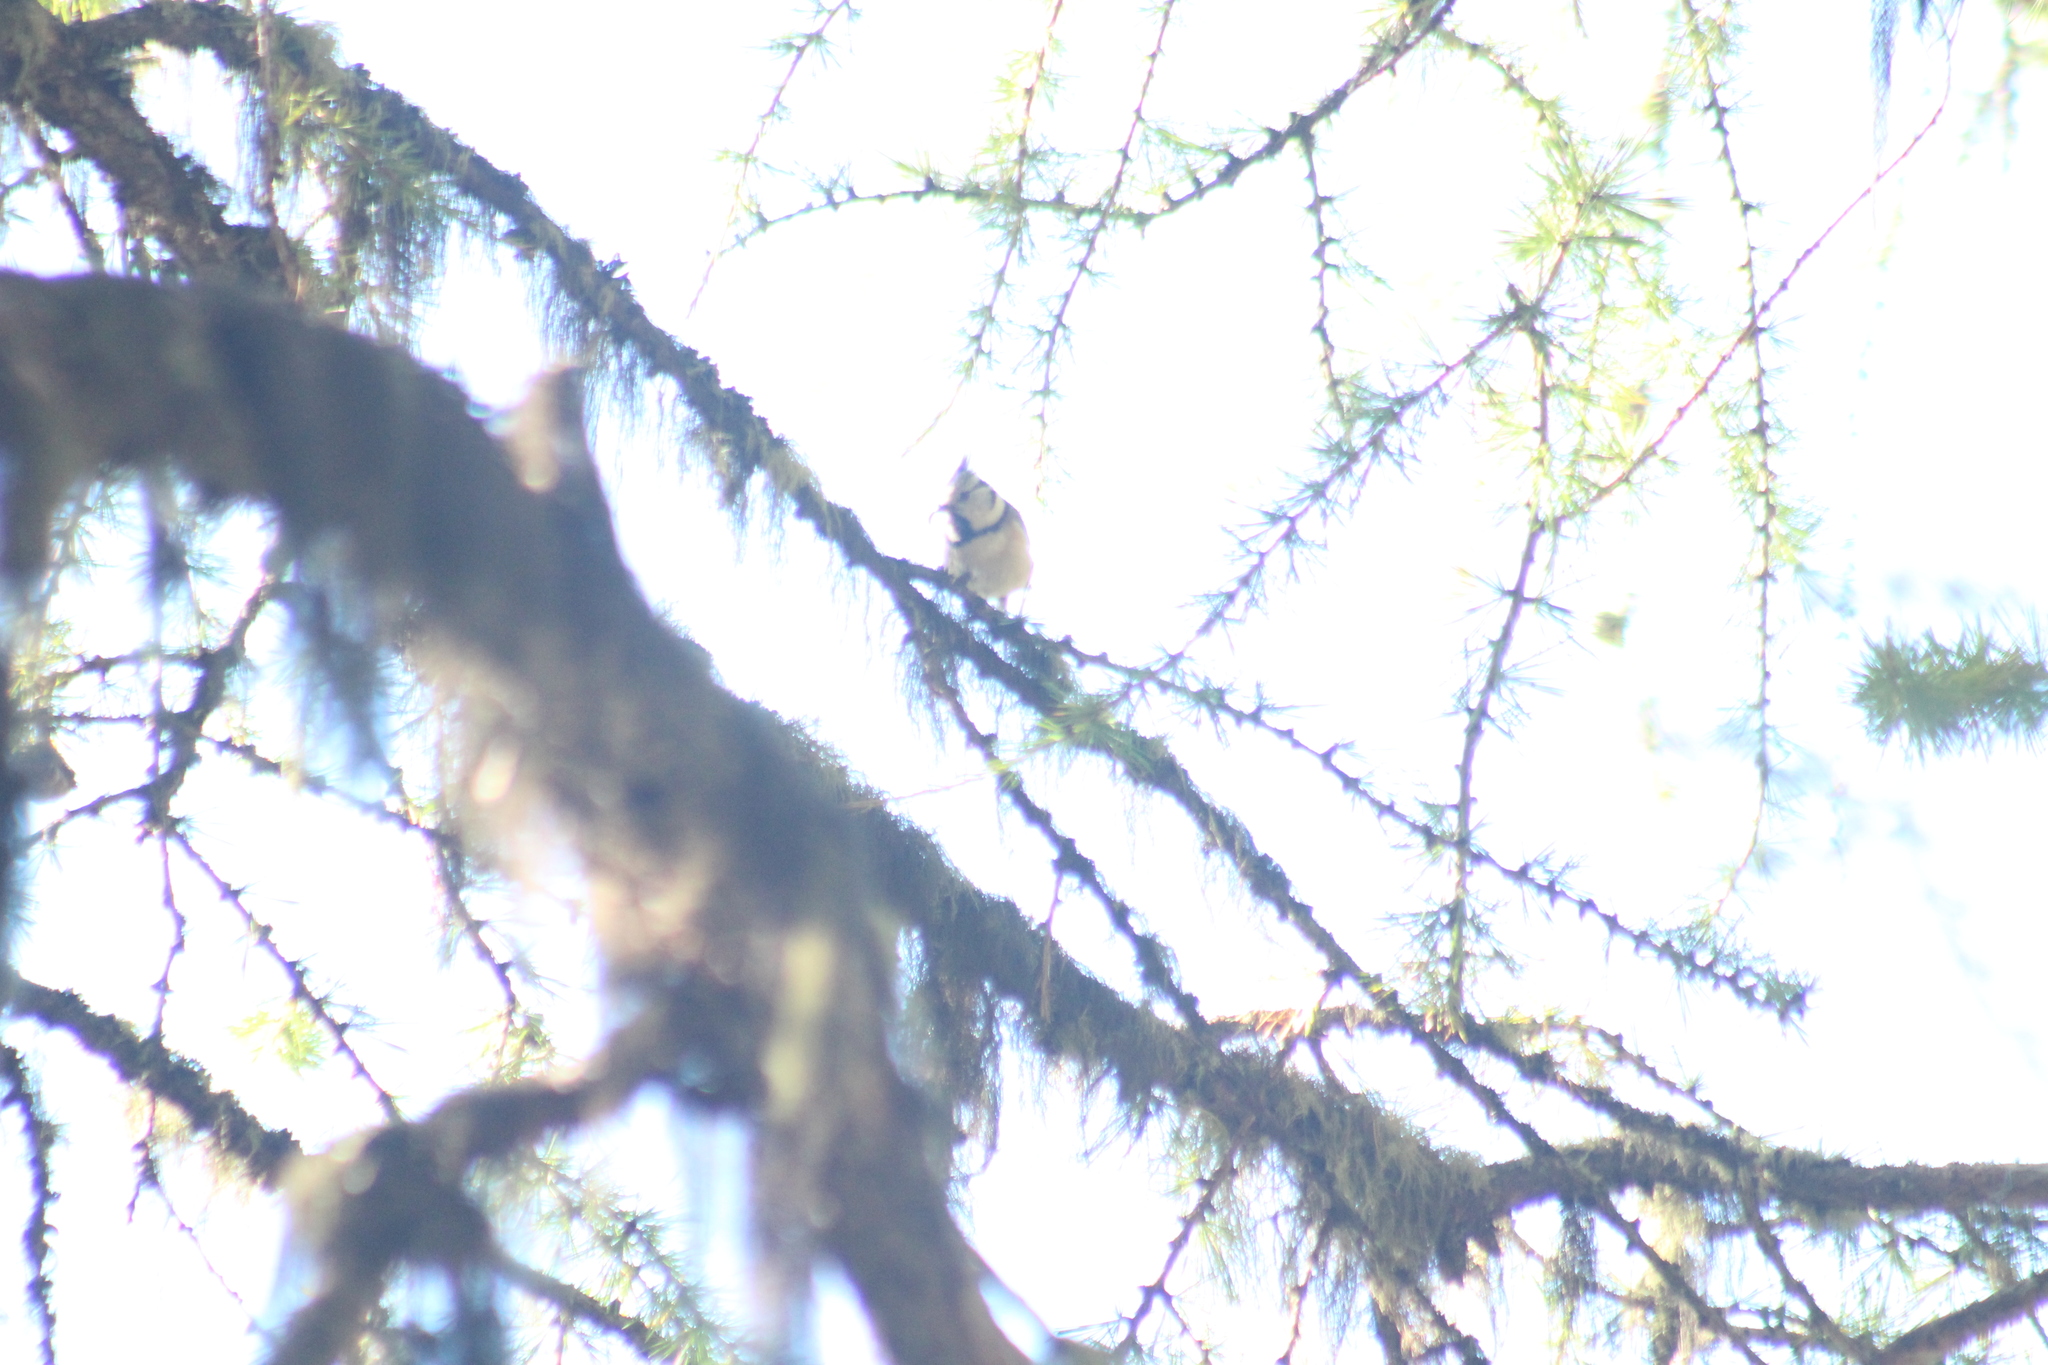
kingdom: Animalia
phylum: Chordata
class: Aves
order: Passeriformes
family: Paridae
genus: Lophophanes
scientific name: Lophophanes cristatus
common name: European crested tit
